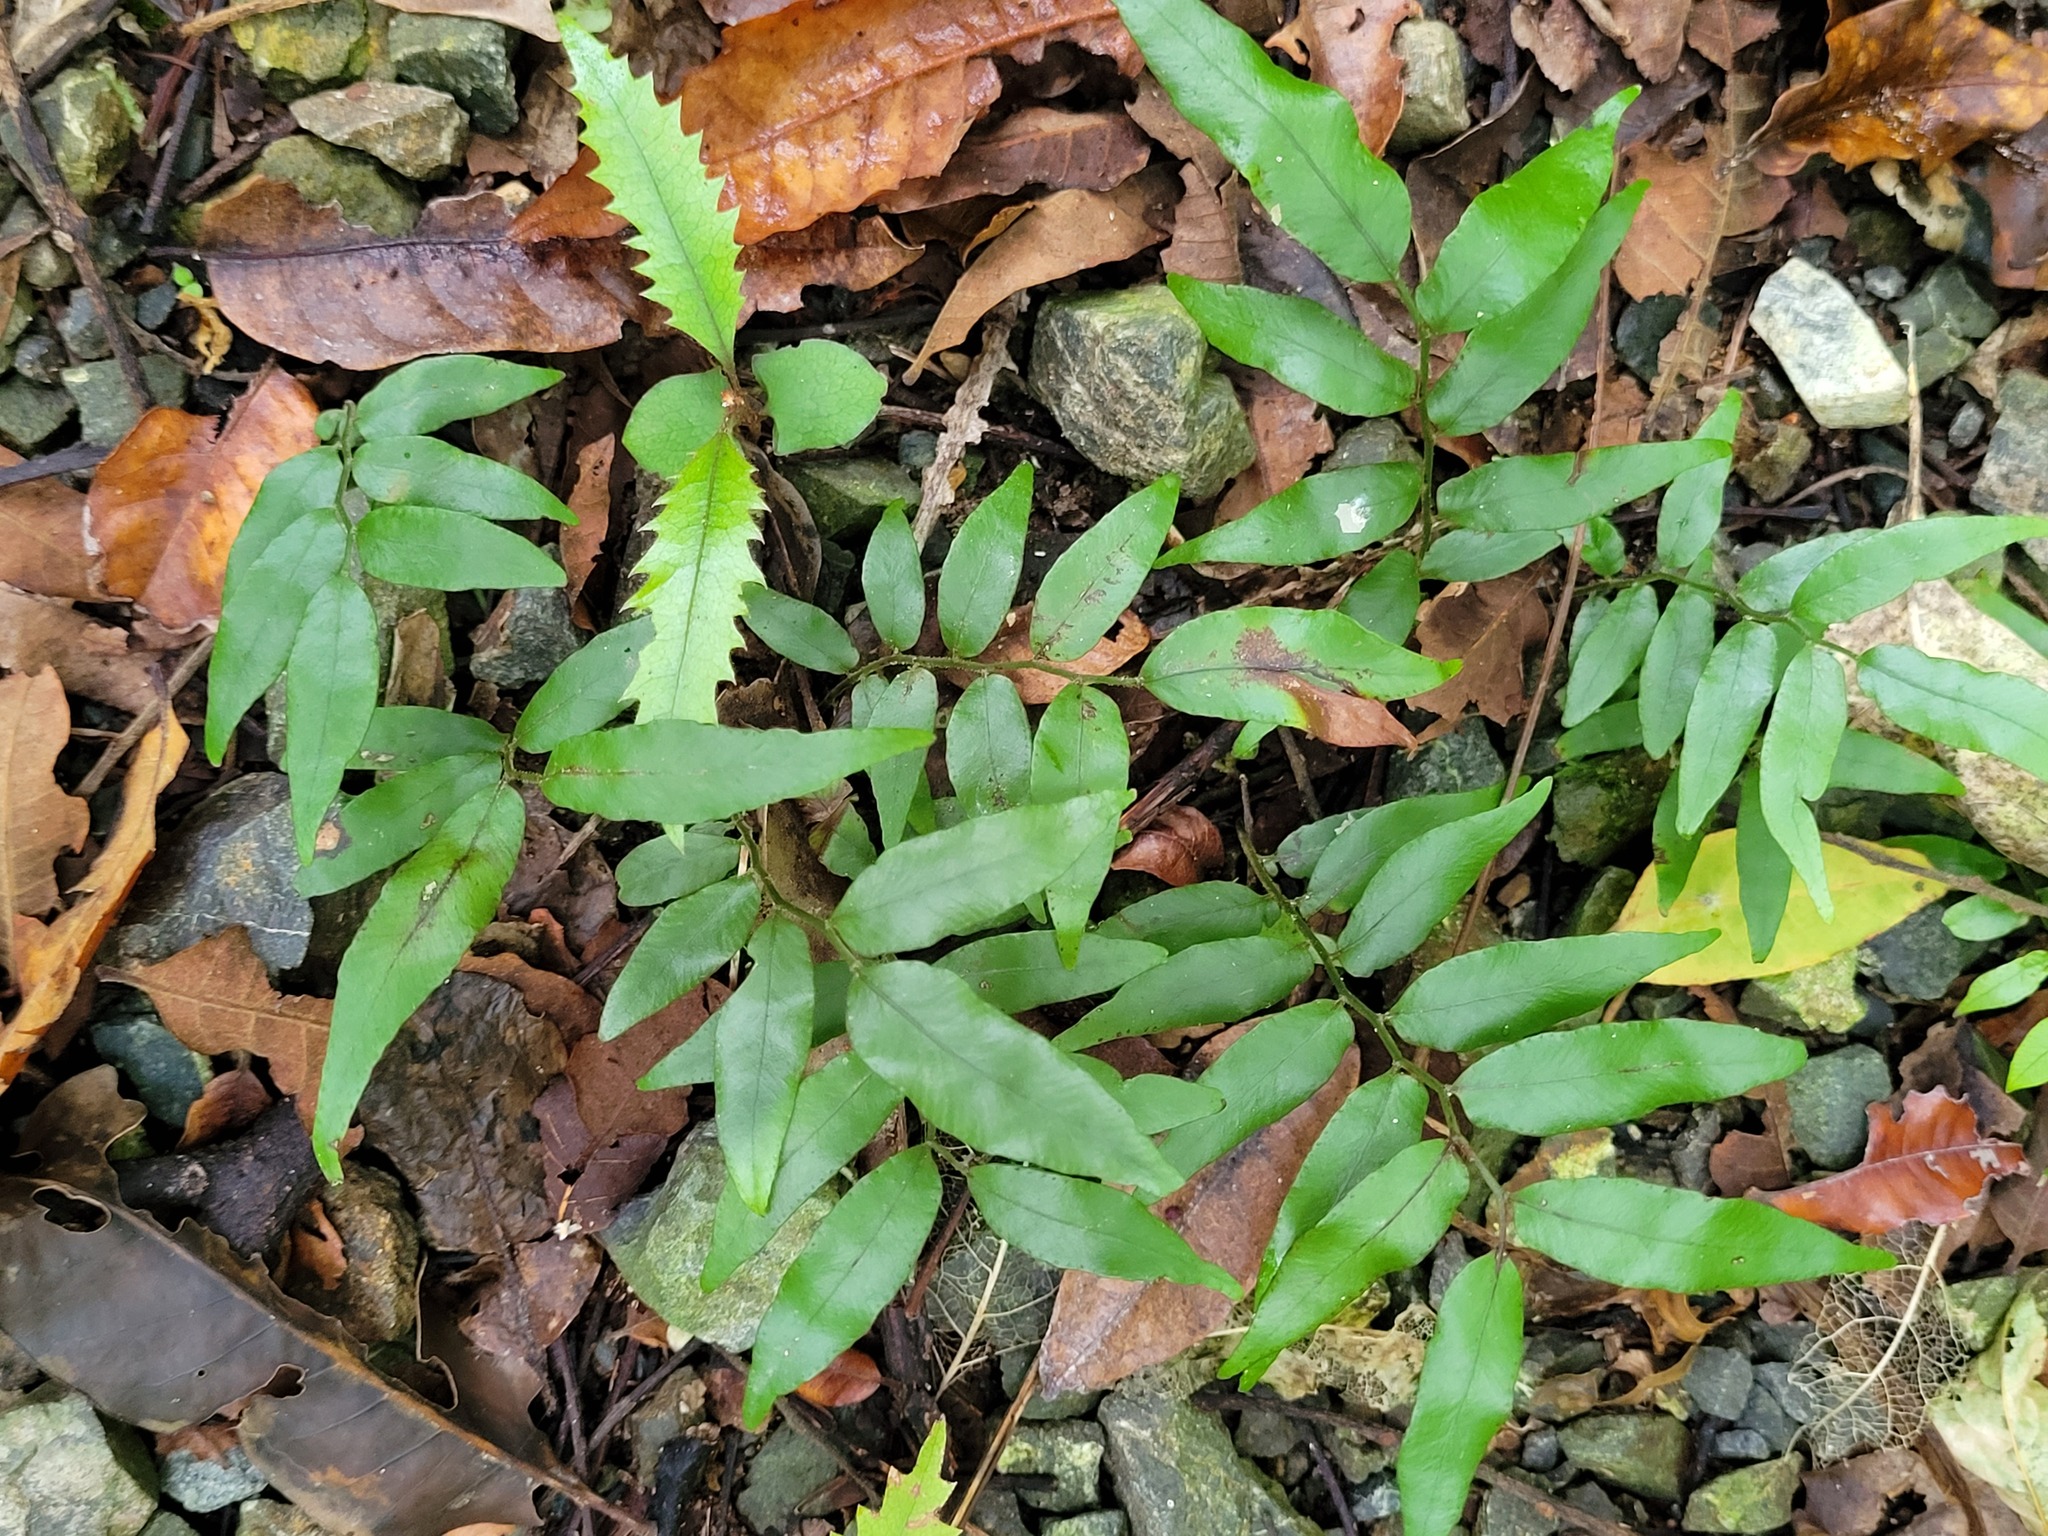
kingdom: Plantae
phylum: Tracheophyta
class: Polypodiopsida
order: Polypodiales
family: Tectariaceae
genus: Arthropteris
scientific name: Arthropteris tenella
